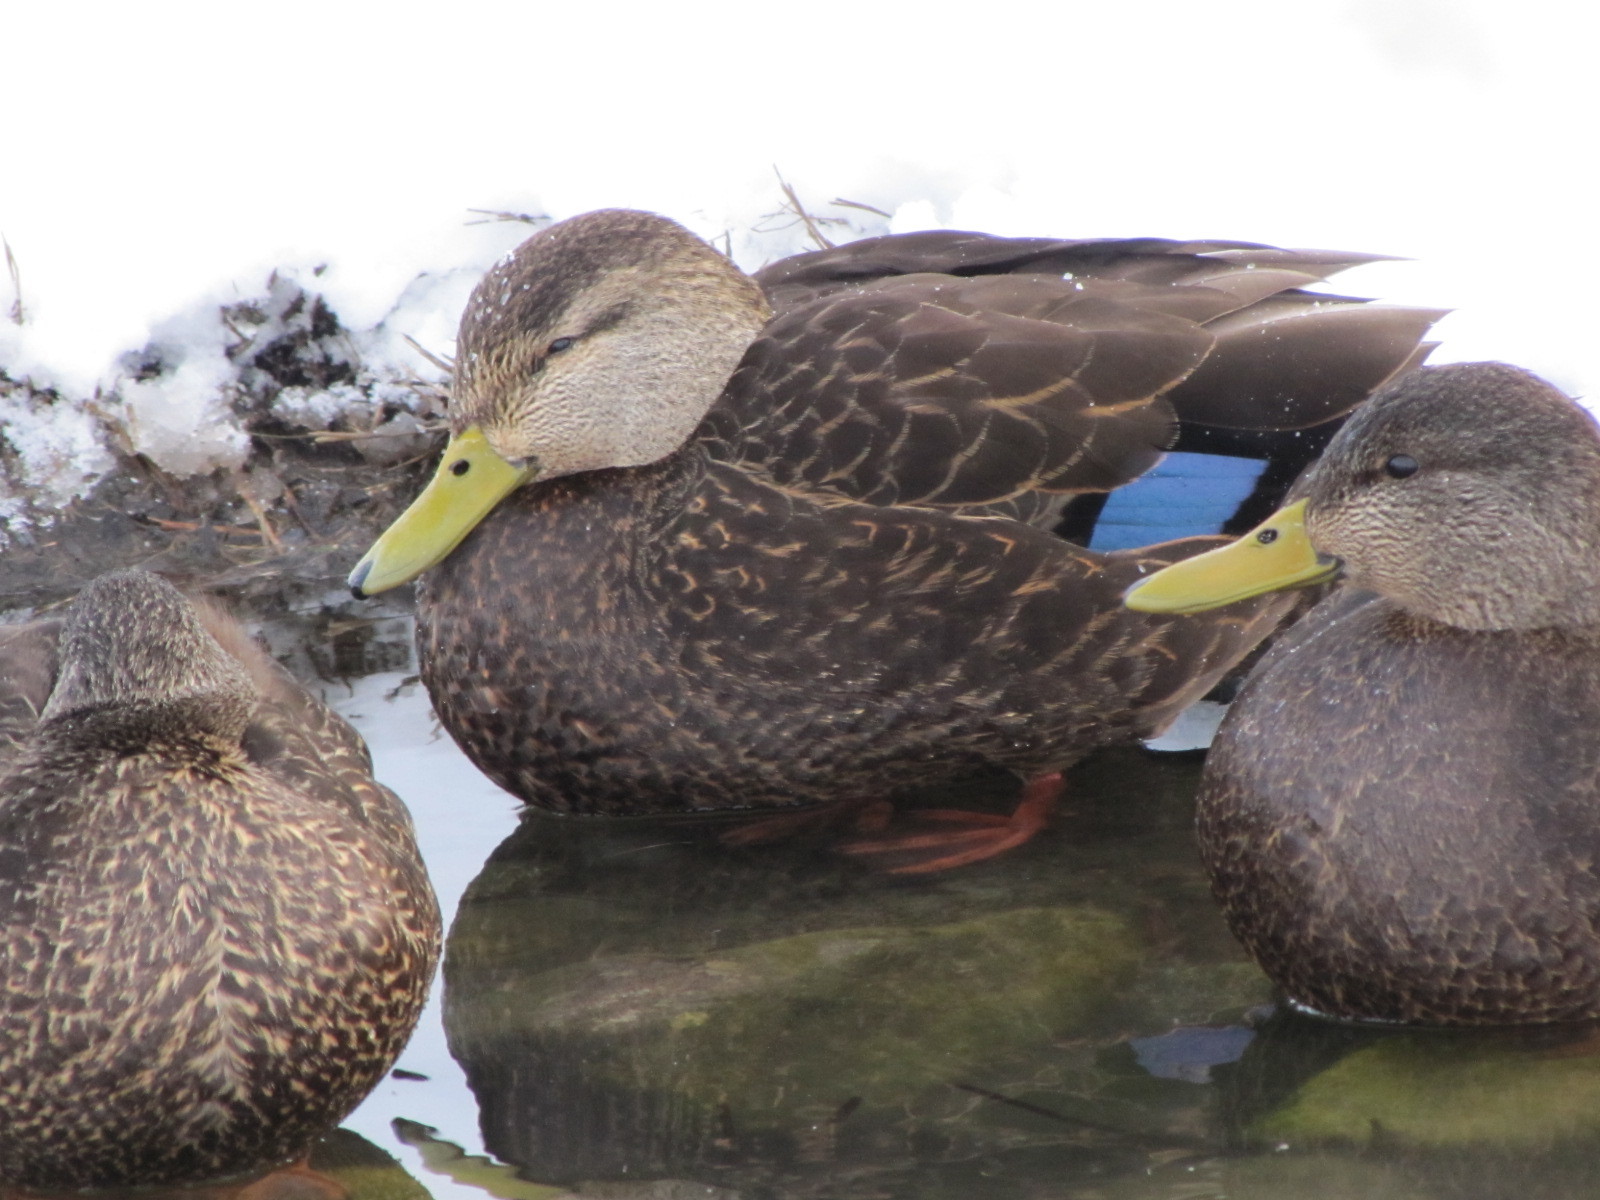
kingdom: Animalia
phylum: Chordata
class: Aves
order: Anseriformes
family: Anatidae
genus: Anas
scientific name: Anas rubripes
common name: American black duck
